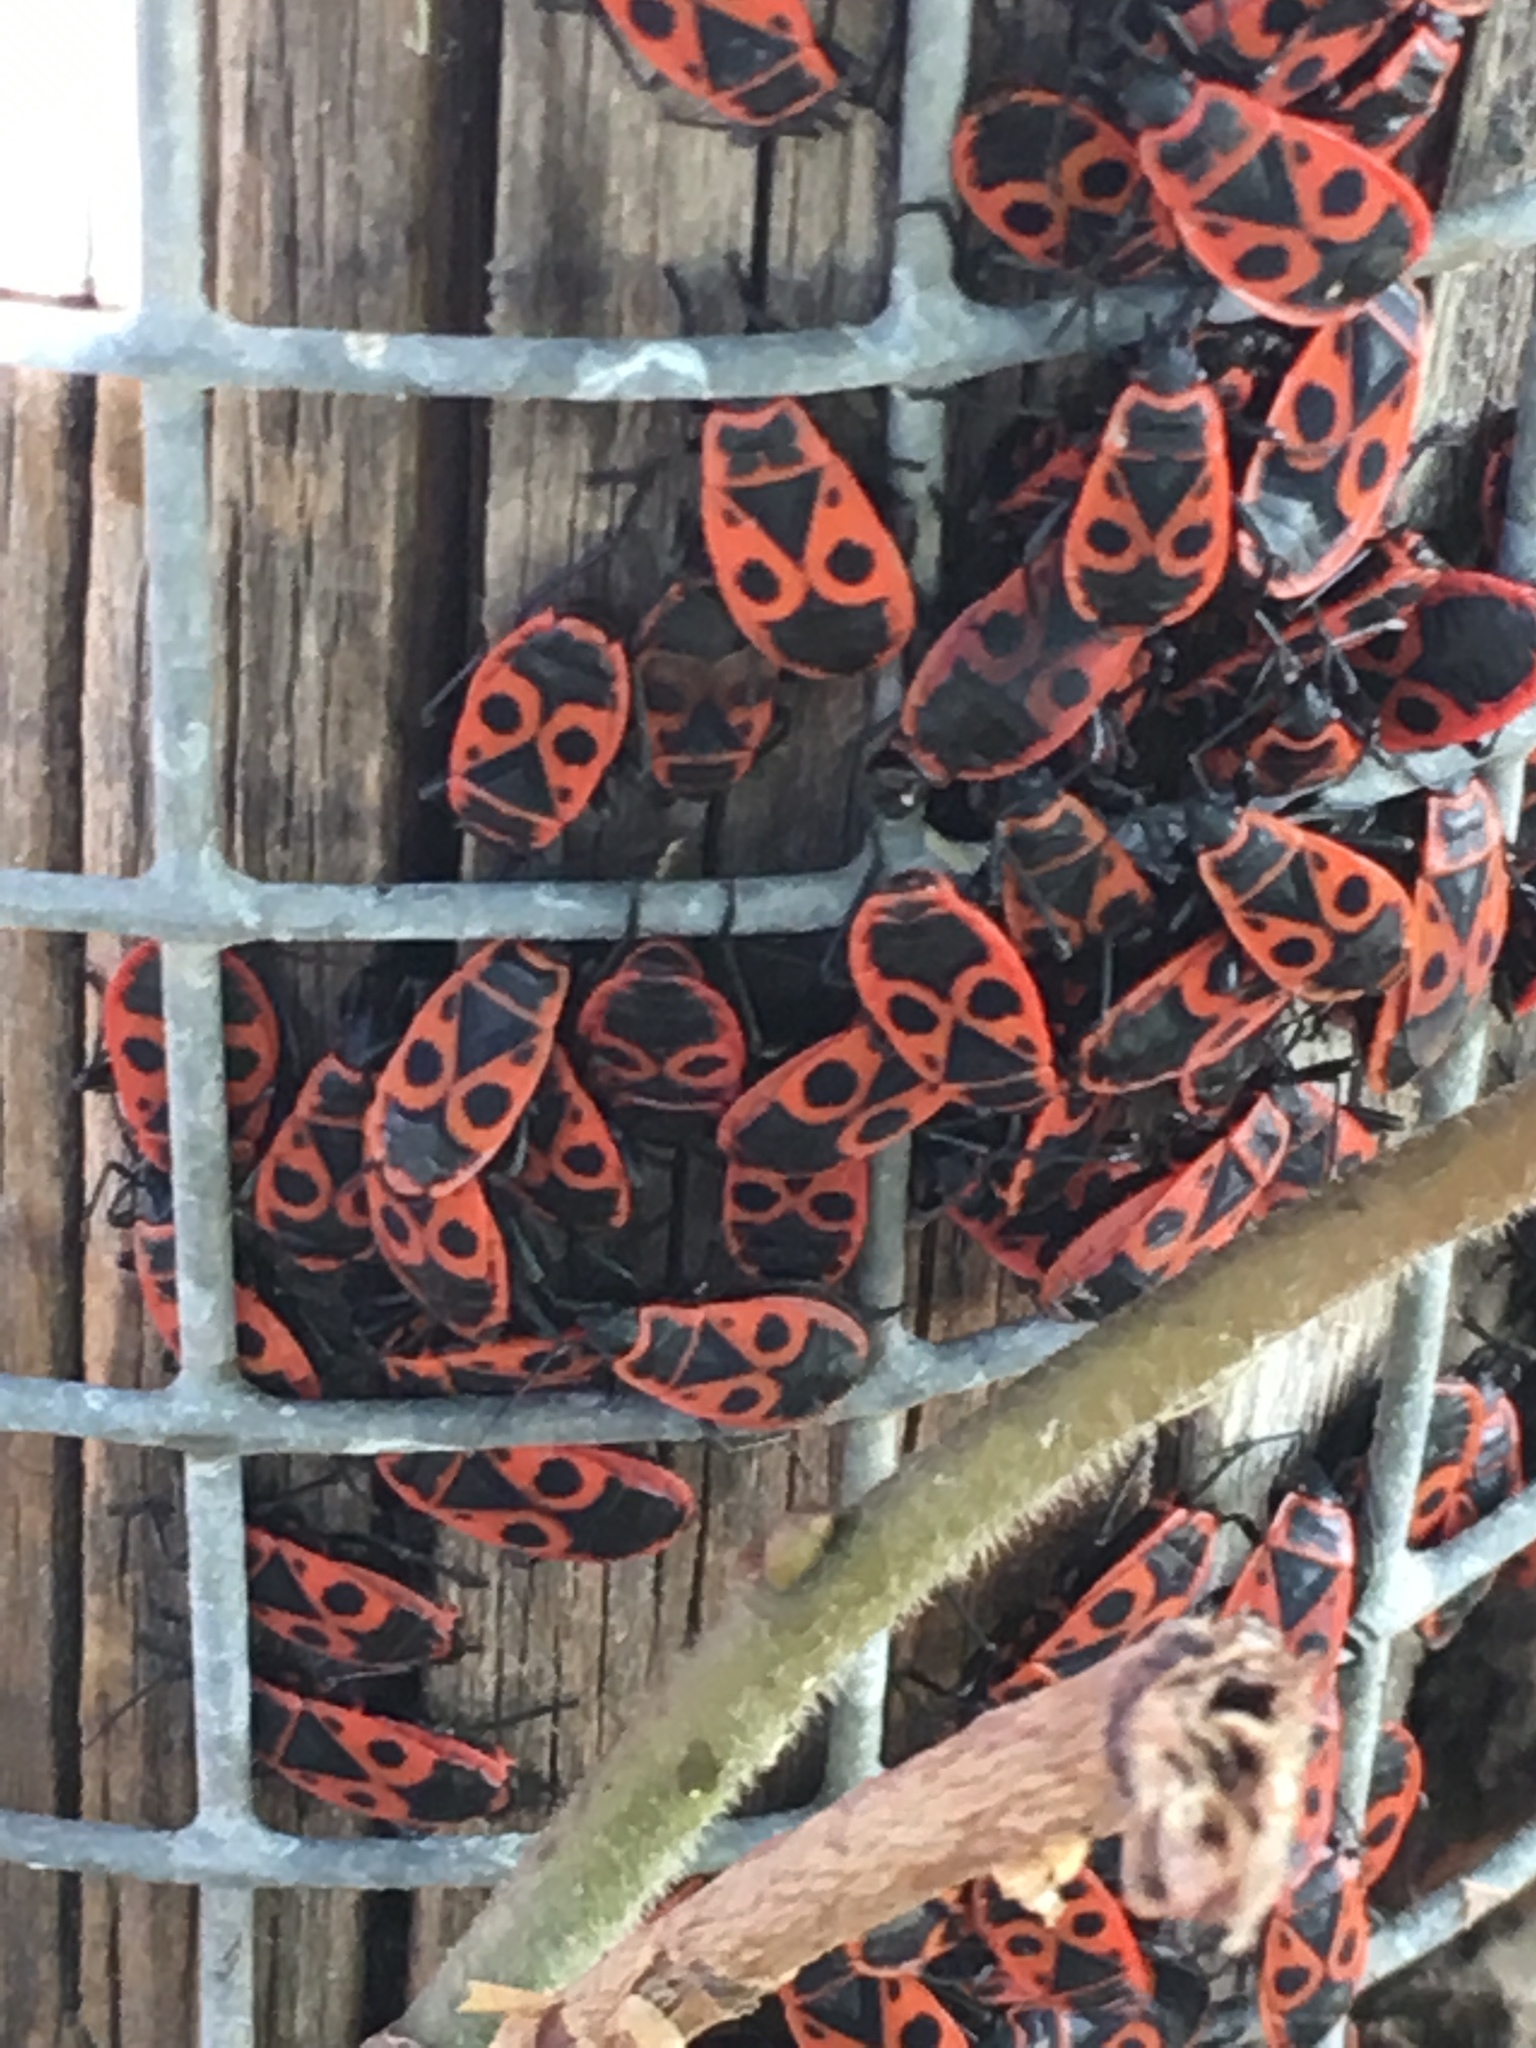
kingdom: Animalia
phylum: Arthropoda
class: Insecta
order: Hemiptera
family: Pyrrhocoridae
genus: Pyrrhocoris
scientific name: Pyrrhocoris apterus
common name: Firebug
